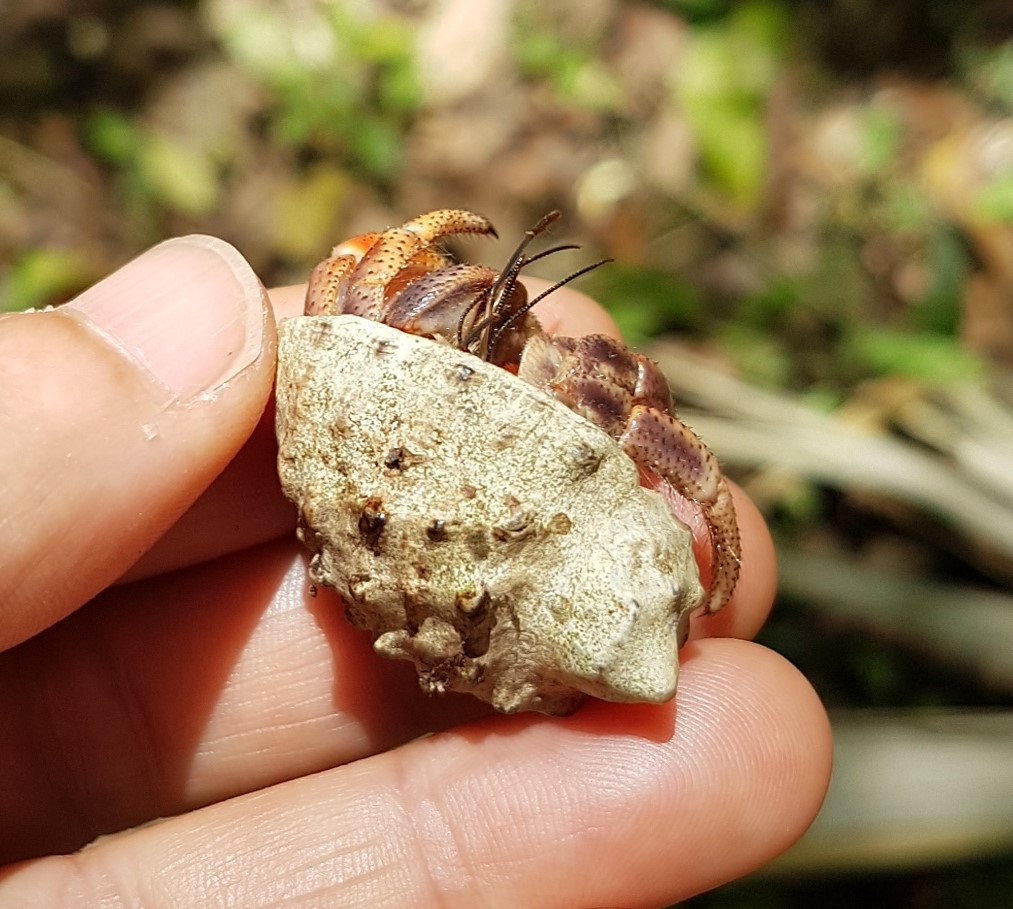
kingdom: Animalia
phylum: Mollusca
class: Gastropoda
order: Neogastropoda
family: Muricidae
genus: Plicopurpura
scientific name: Plicopurpura patula
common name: Wide-mouthed dye shell
